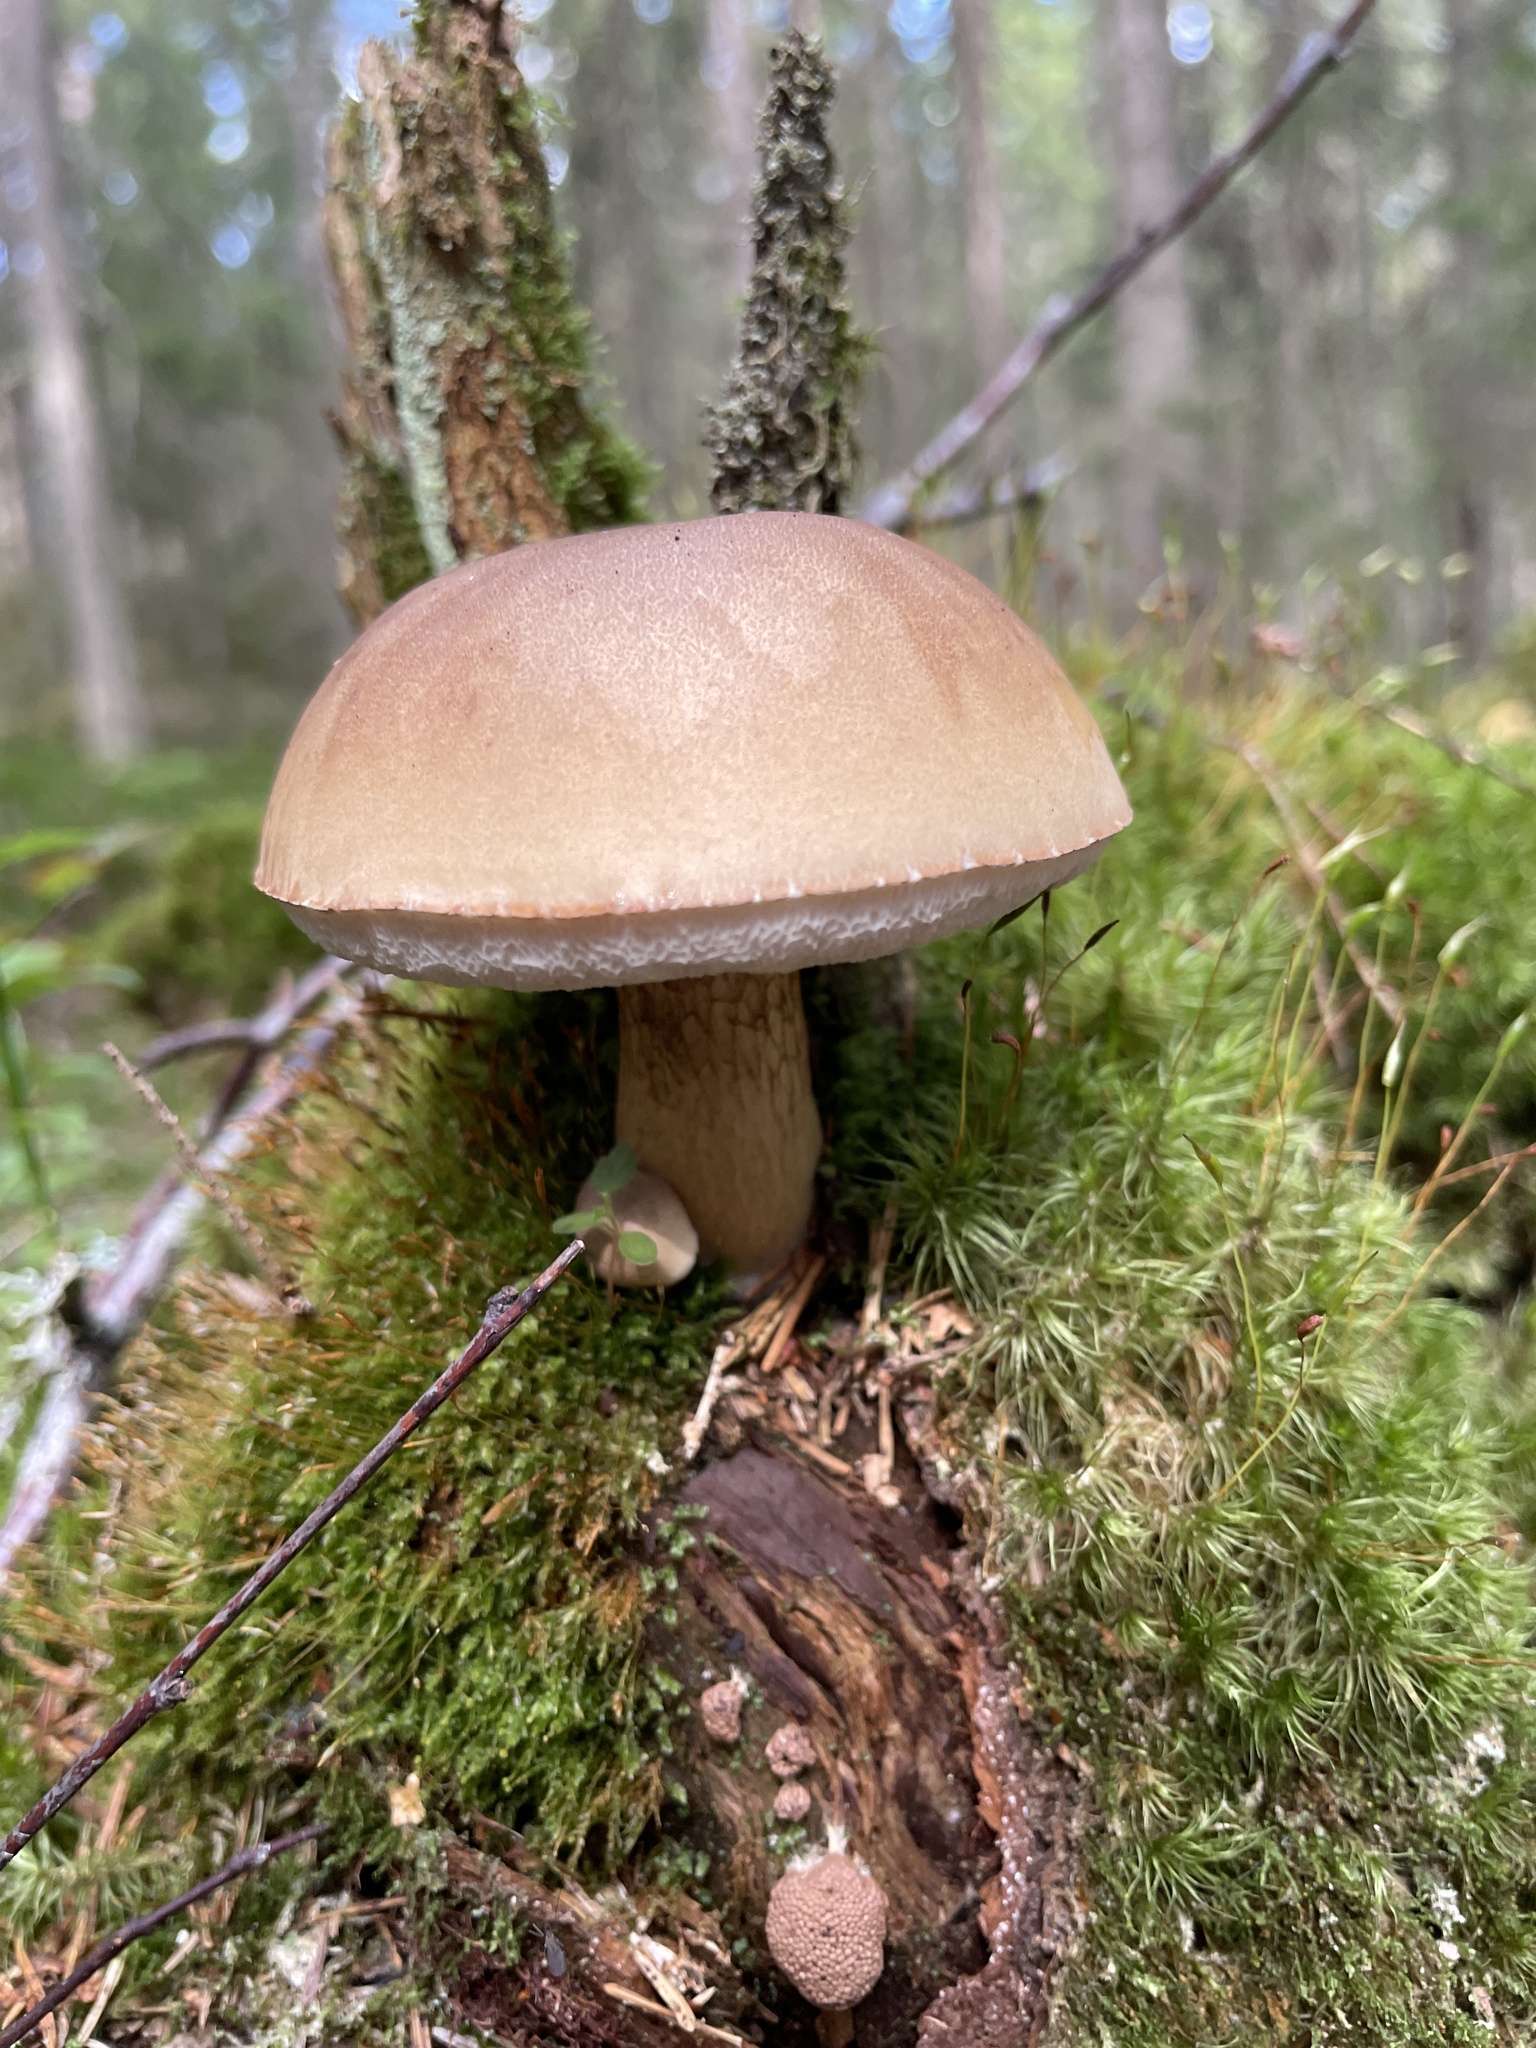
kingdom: Fungi
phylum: Basidiomycota
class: Agaricomycetes
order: Boletales
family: Boletaceae
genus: Tylopilus
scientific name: Tylopilus felleus
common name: Bitter bolete
